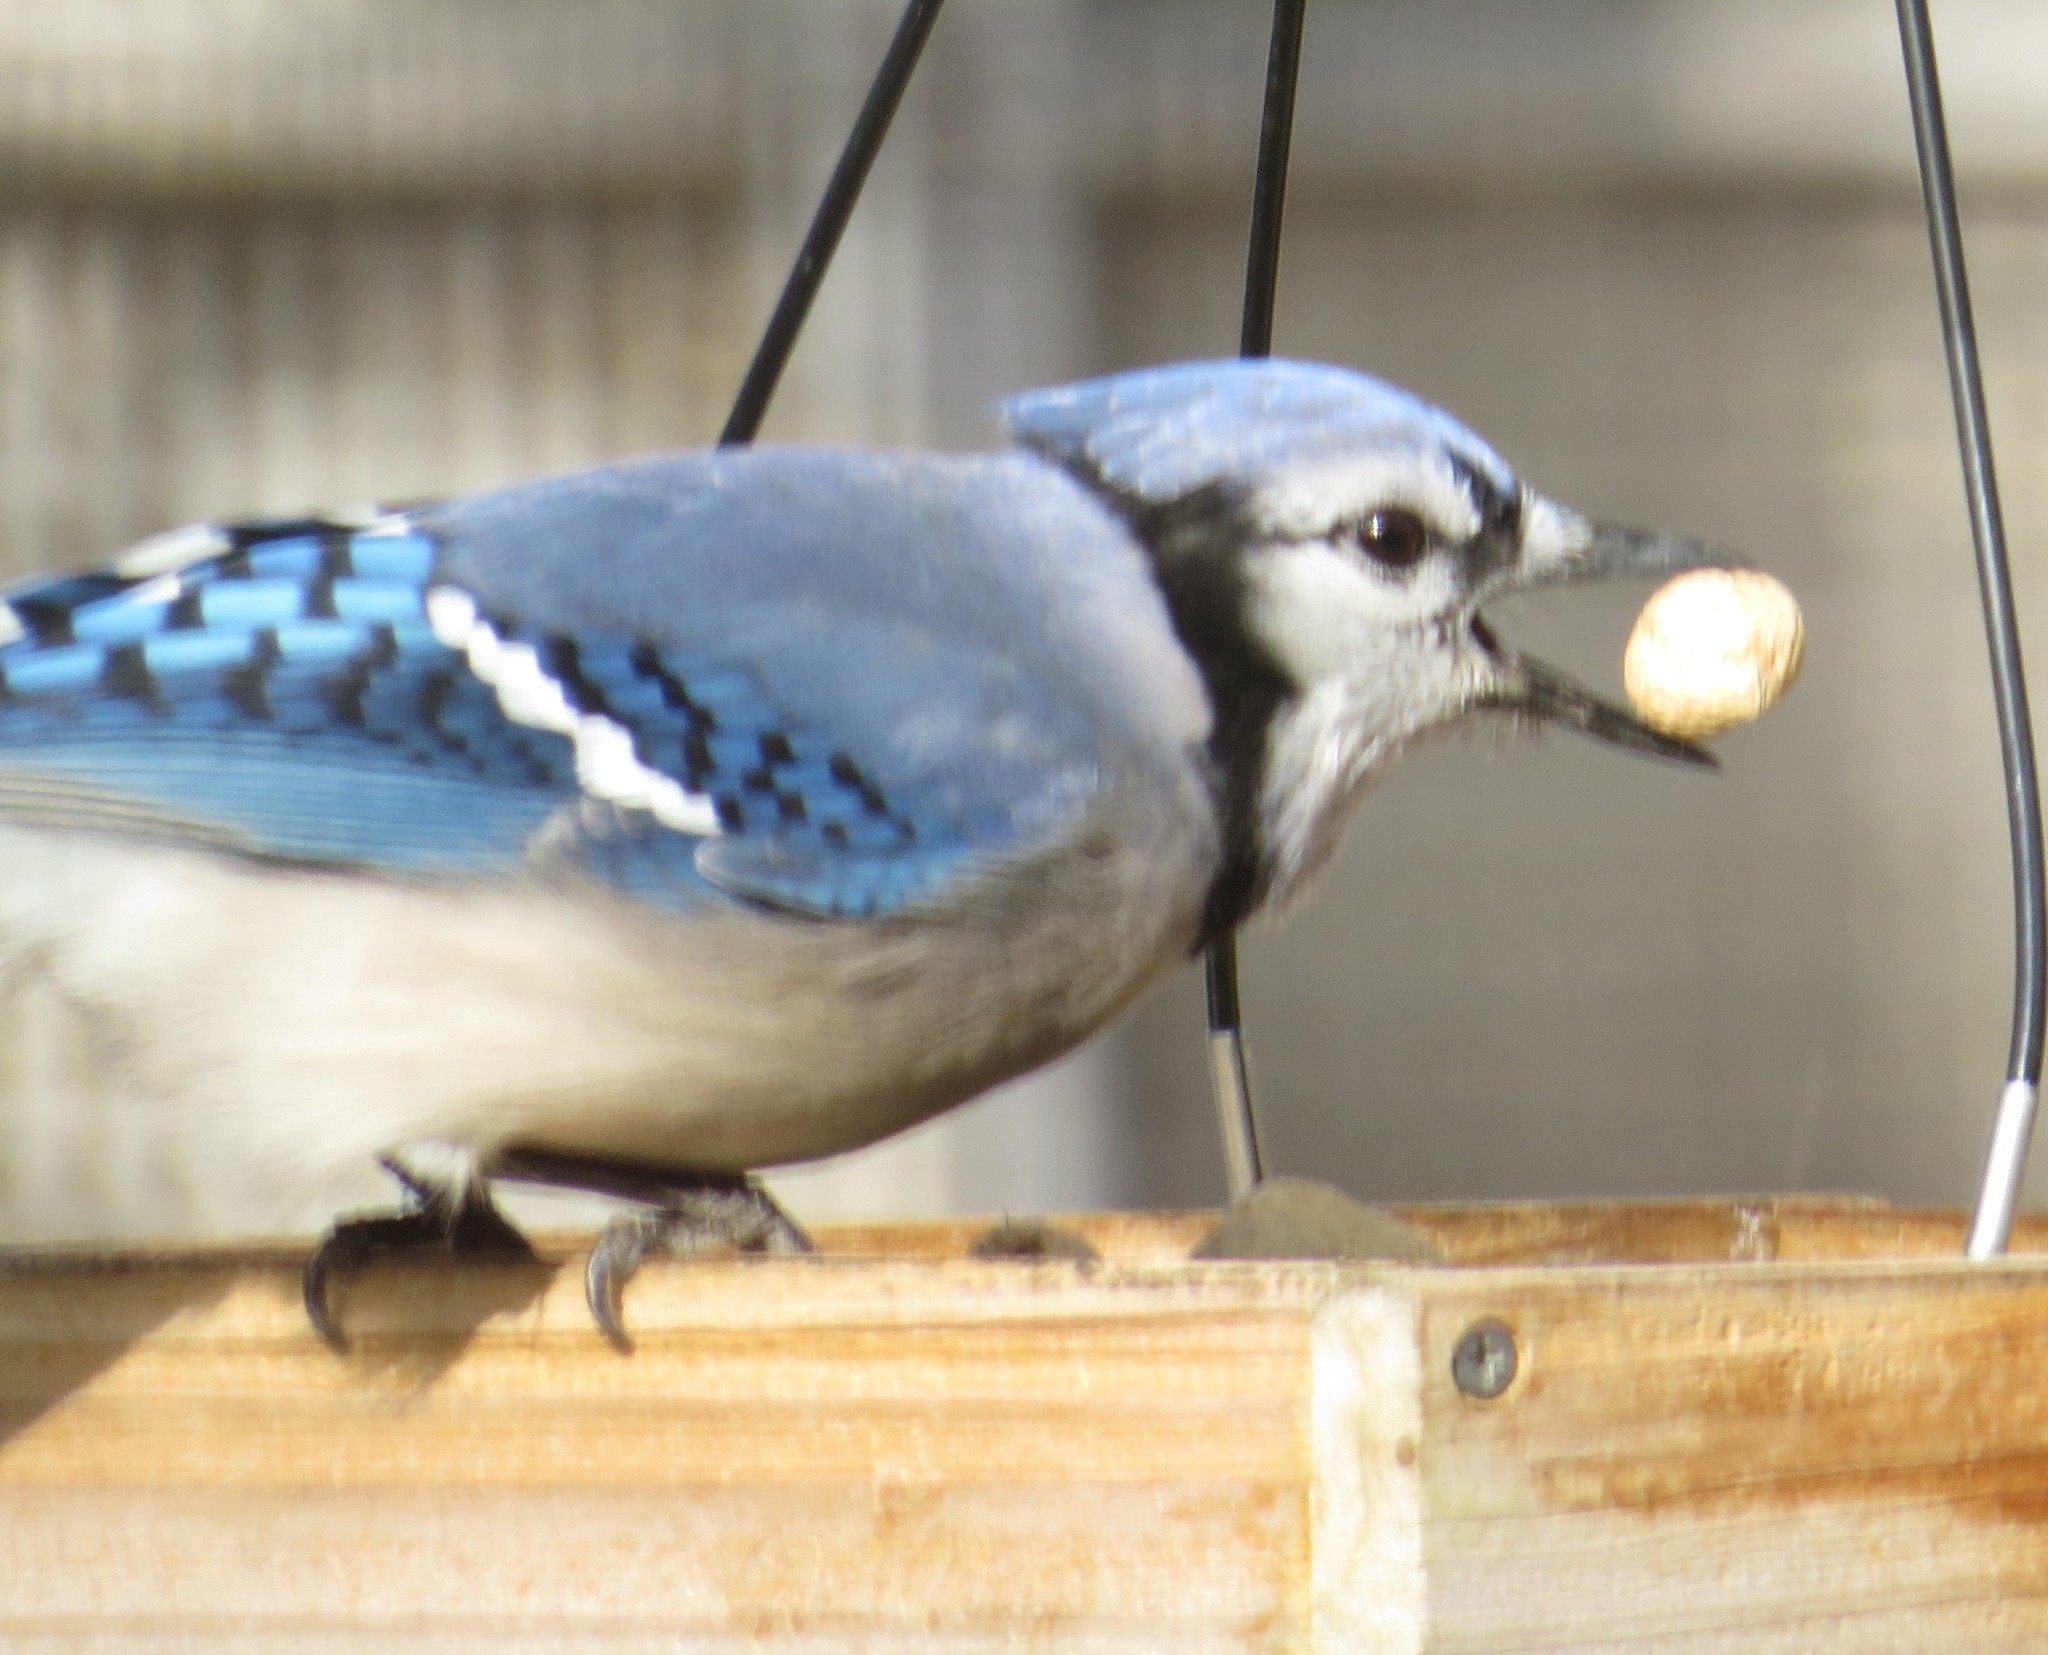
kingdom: Animalia
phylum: Chordata
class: Aves
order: Passeriformes
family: Corvidae
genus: Cyanocitta
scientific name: Cyanocitta cristata
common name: Blue jay
